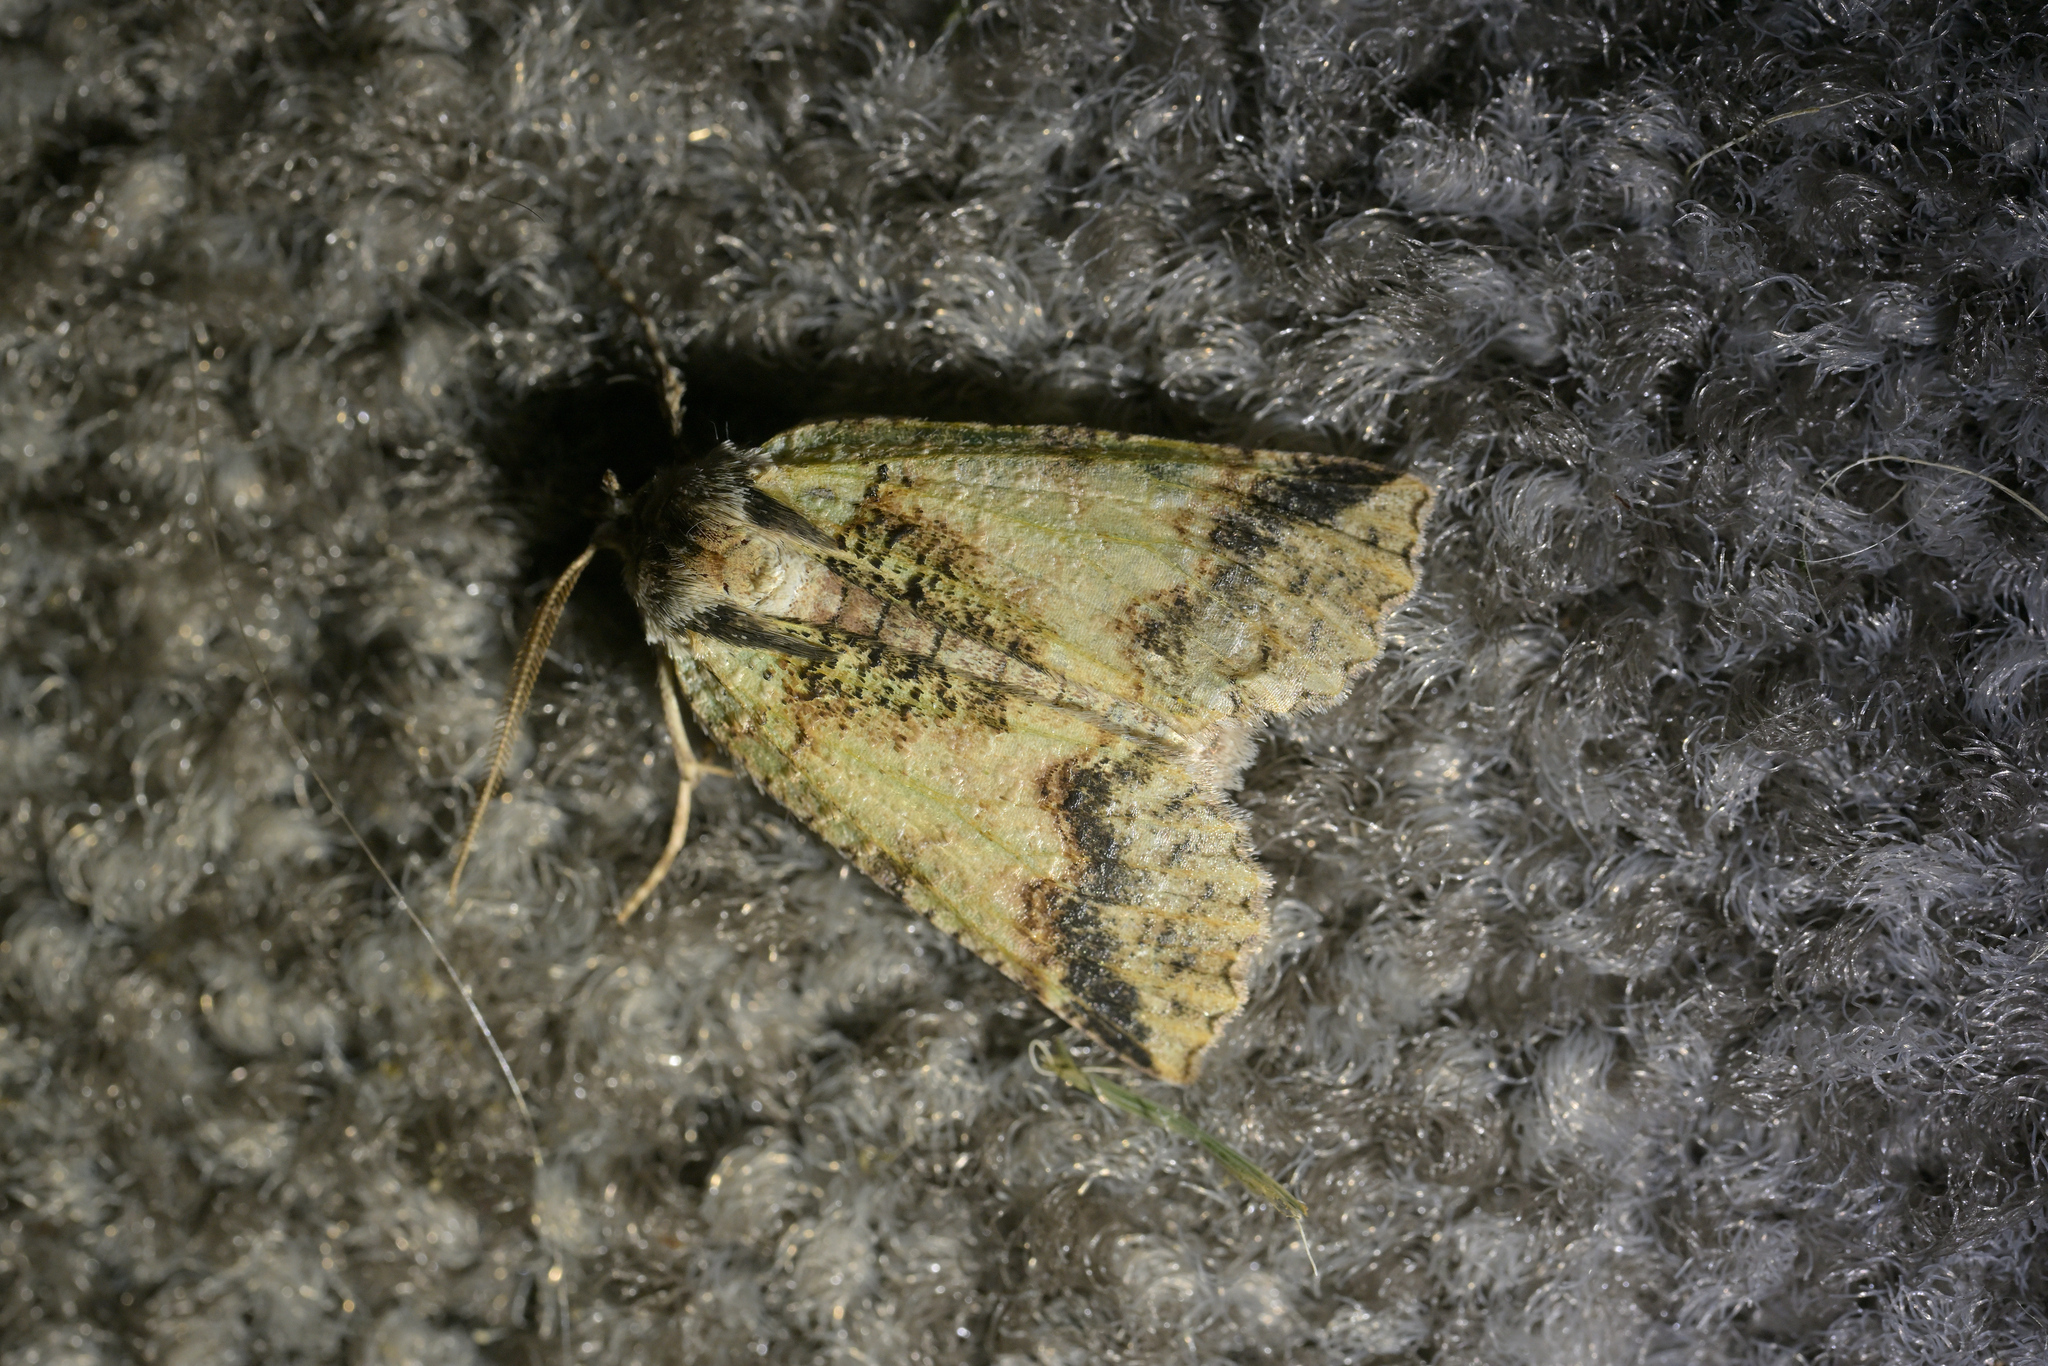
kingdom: Animalia
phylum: Arthropoda
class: Insecta
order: Lepidoptera
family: Geometridae
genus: Declana
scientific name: Declana floccosa
